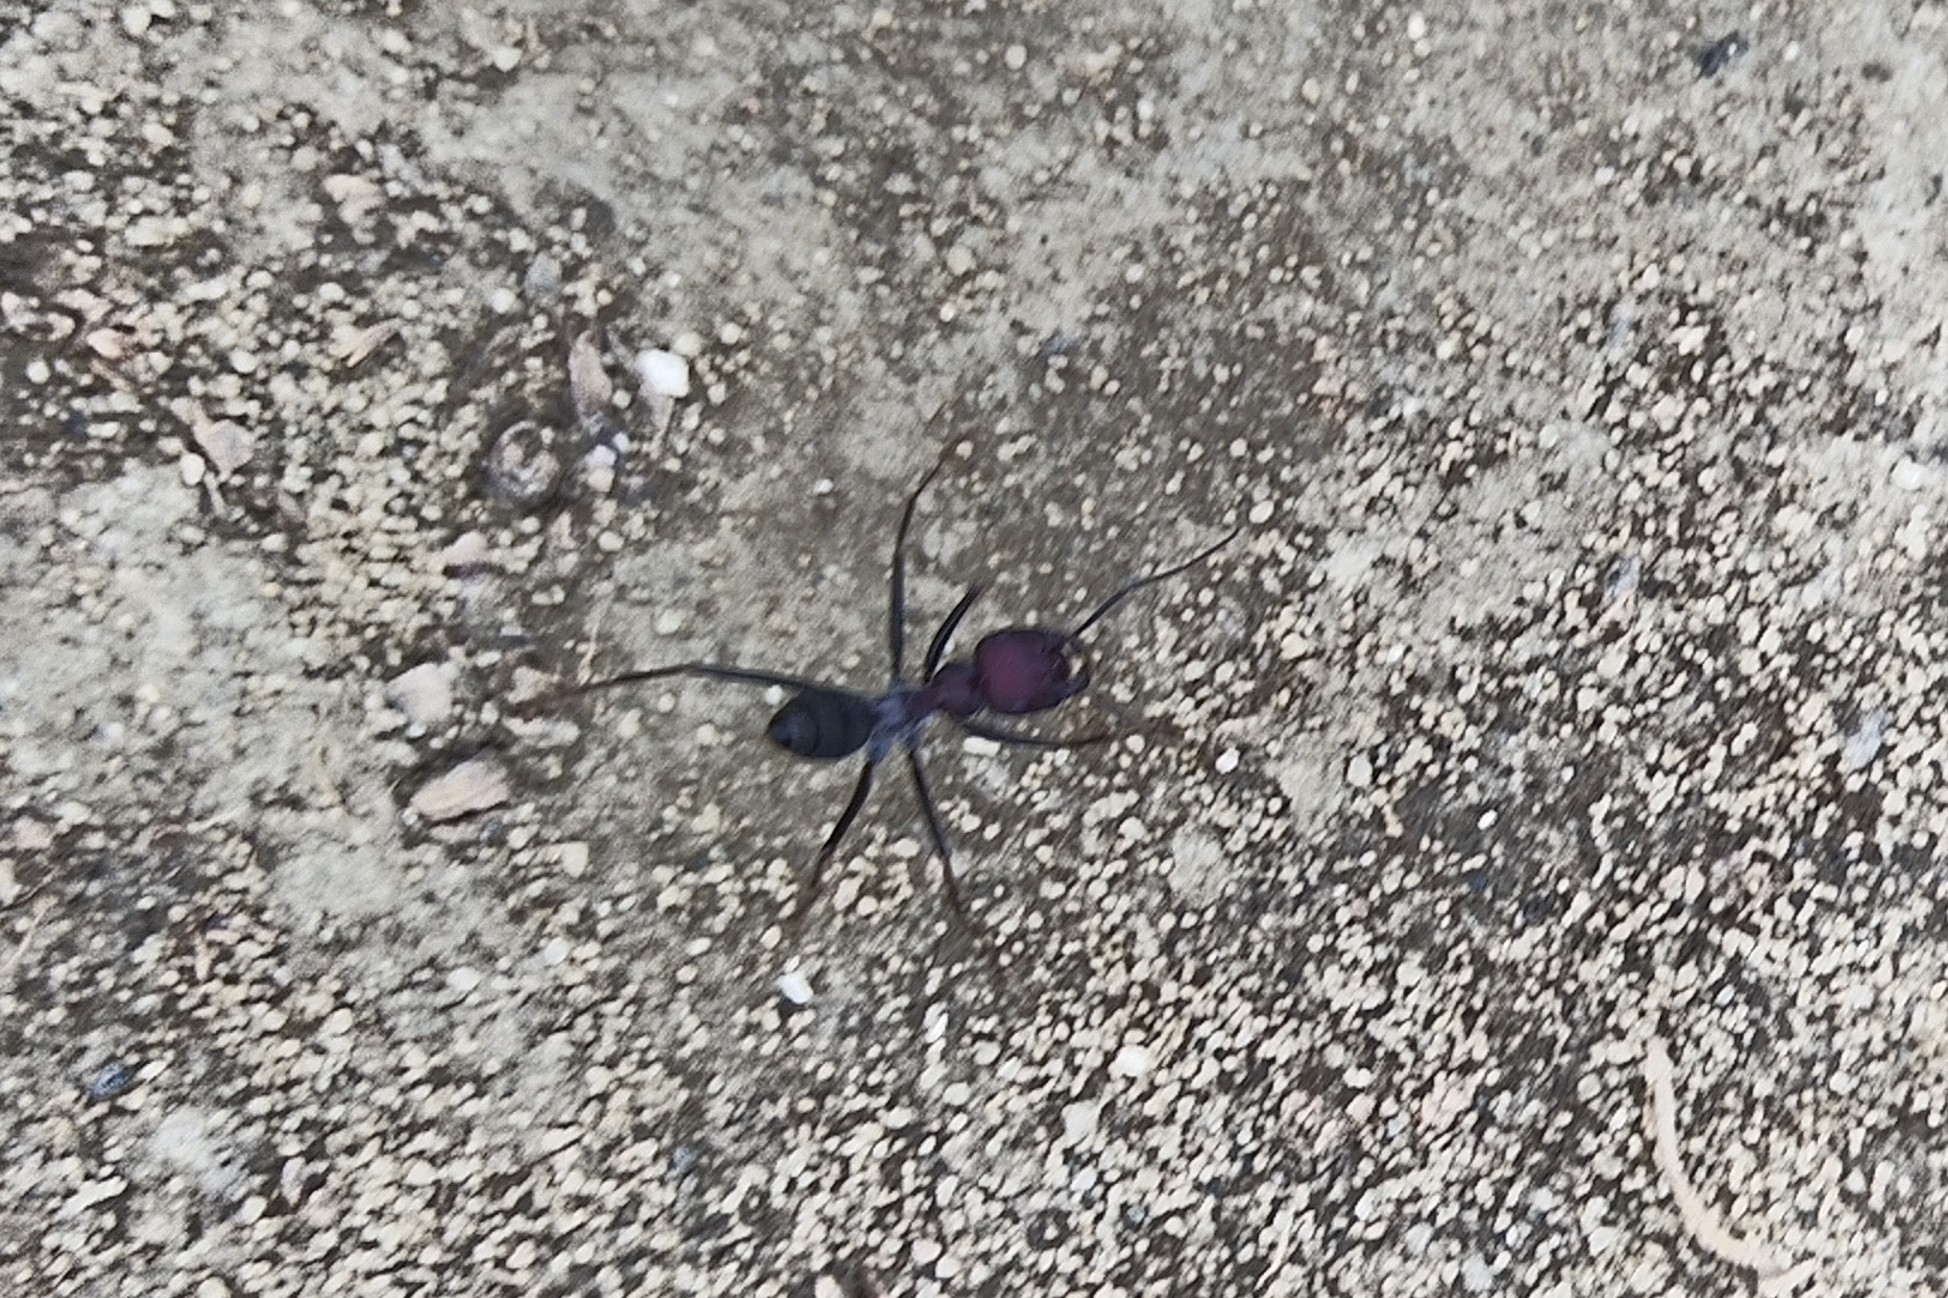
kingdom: Animalia
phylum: Arthropoda
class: Insecta
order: Hymenoptera
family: Formicidae
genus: Cataglyphis
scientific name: Cataglyphis nodus
